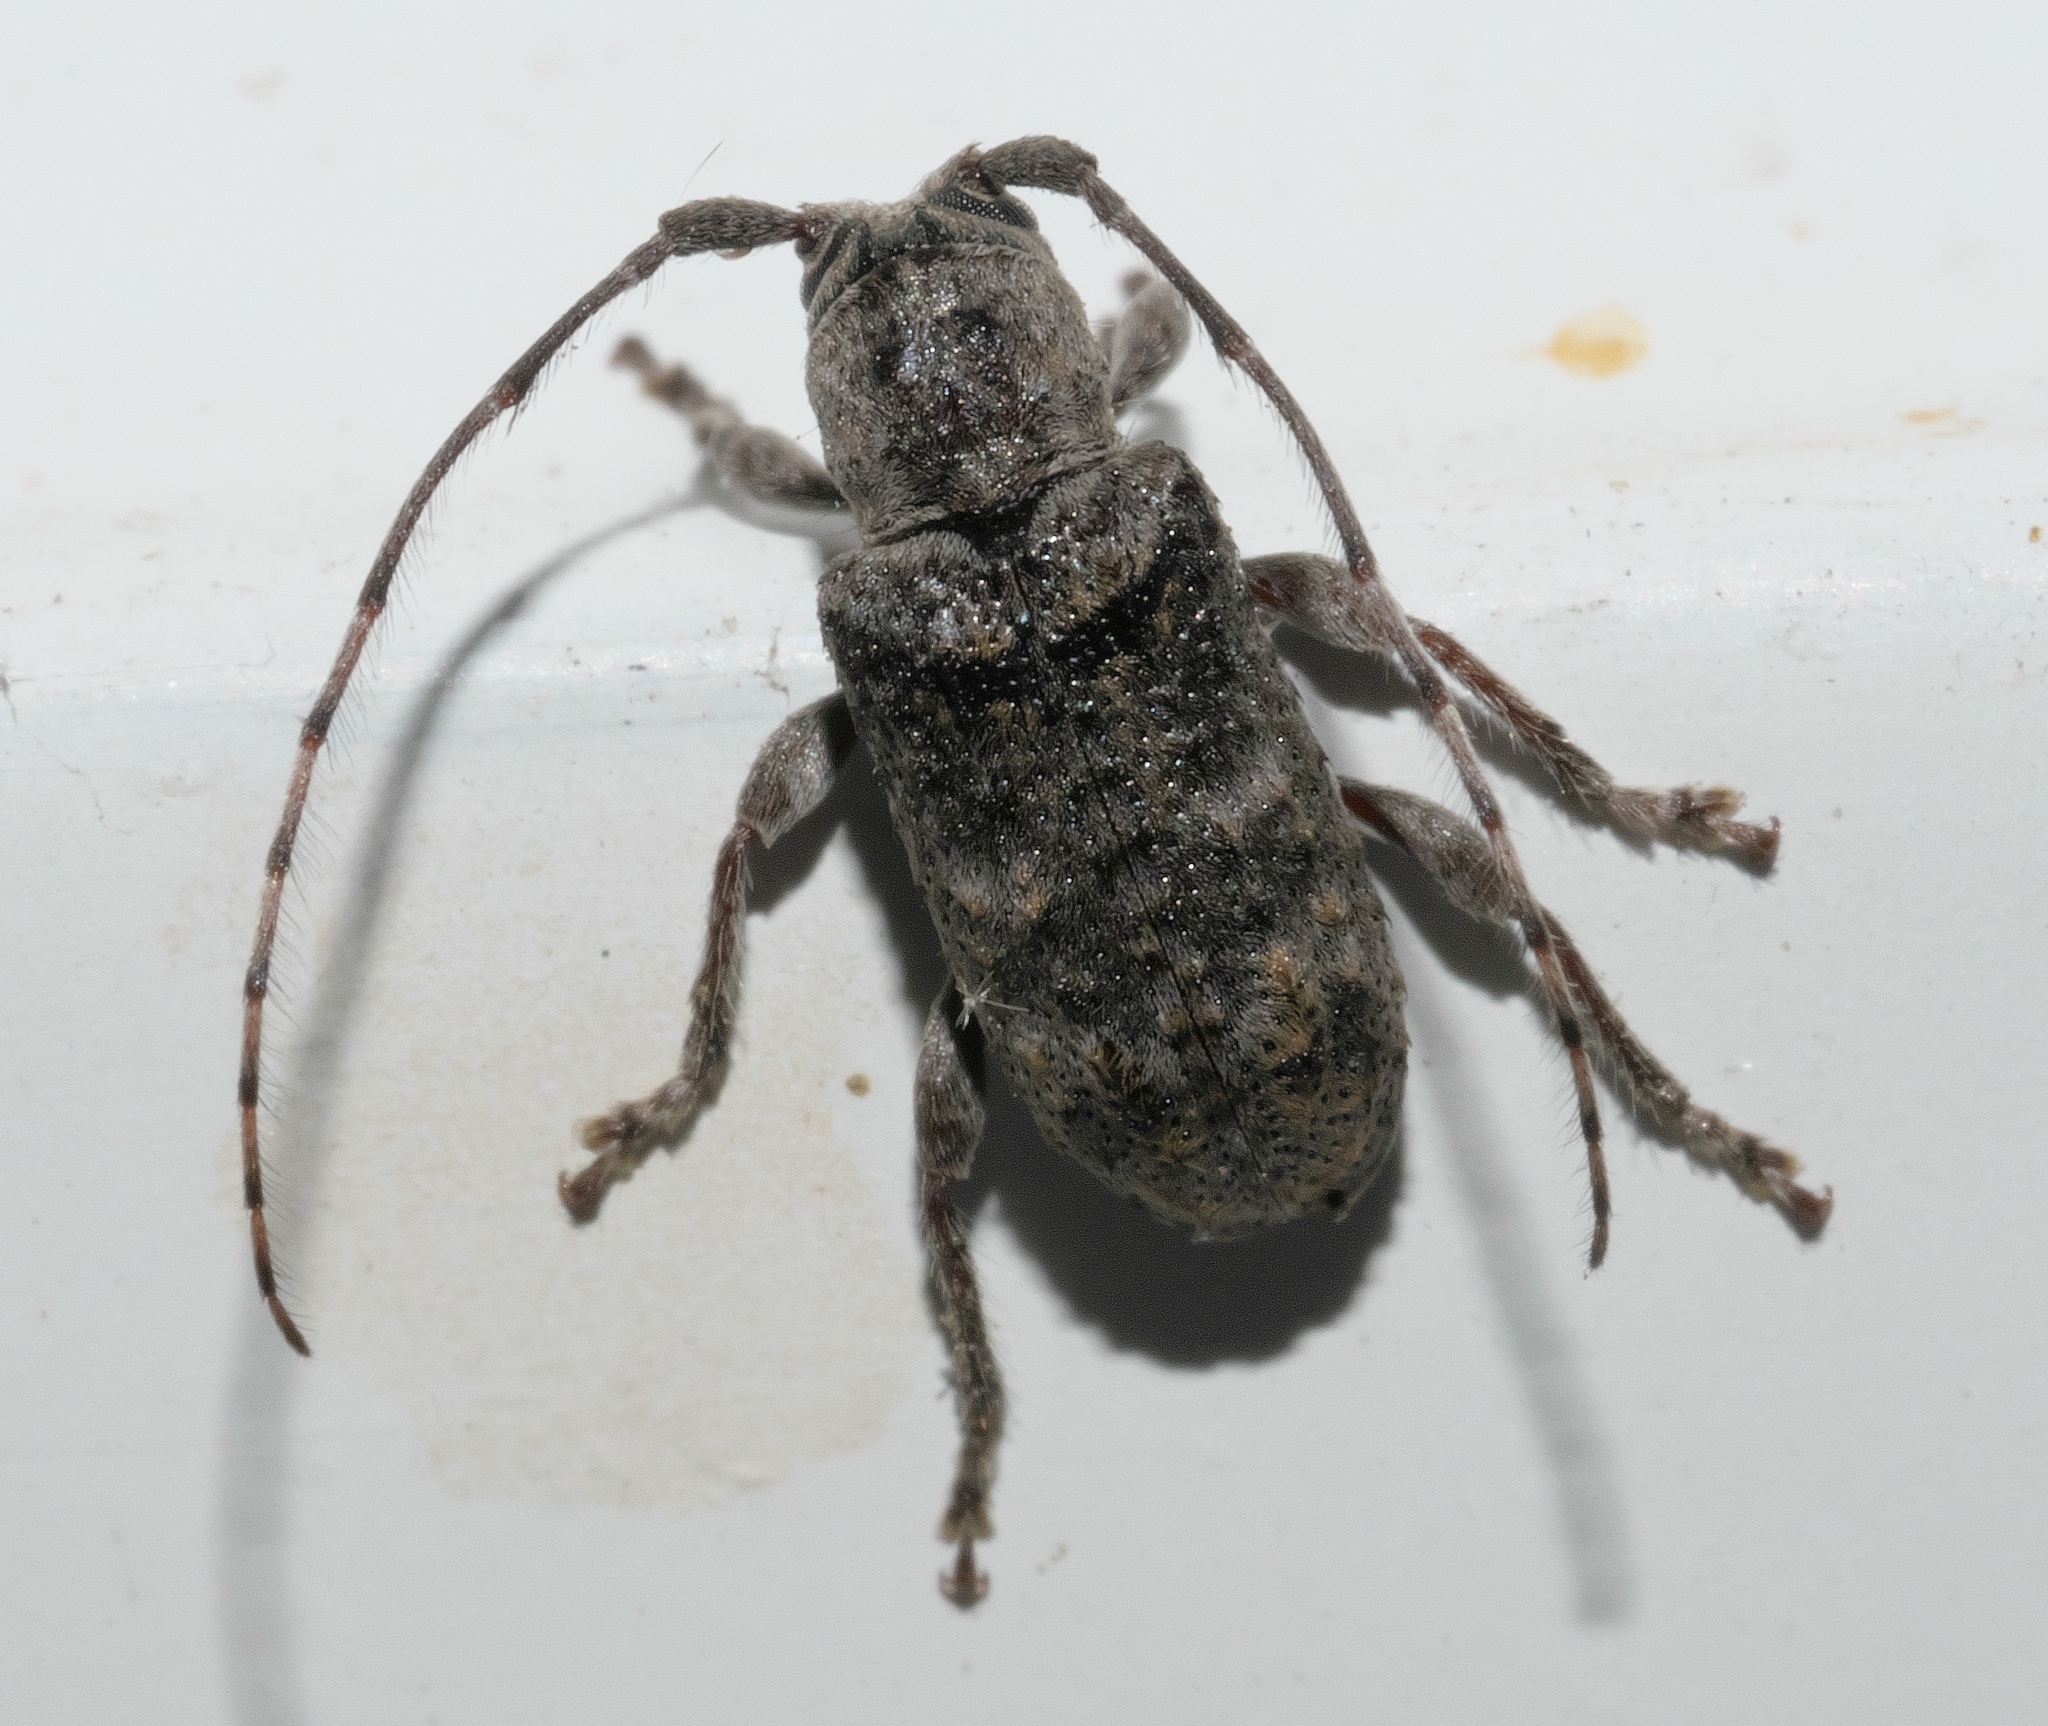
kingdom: Animalia
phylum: Arthropoda
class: Insecta
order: Coleoptera
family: Cerambycidae
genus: Ecyrus
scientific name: Ecyrus dasycerus
